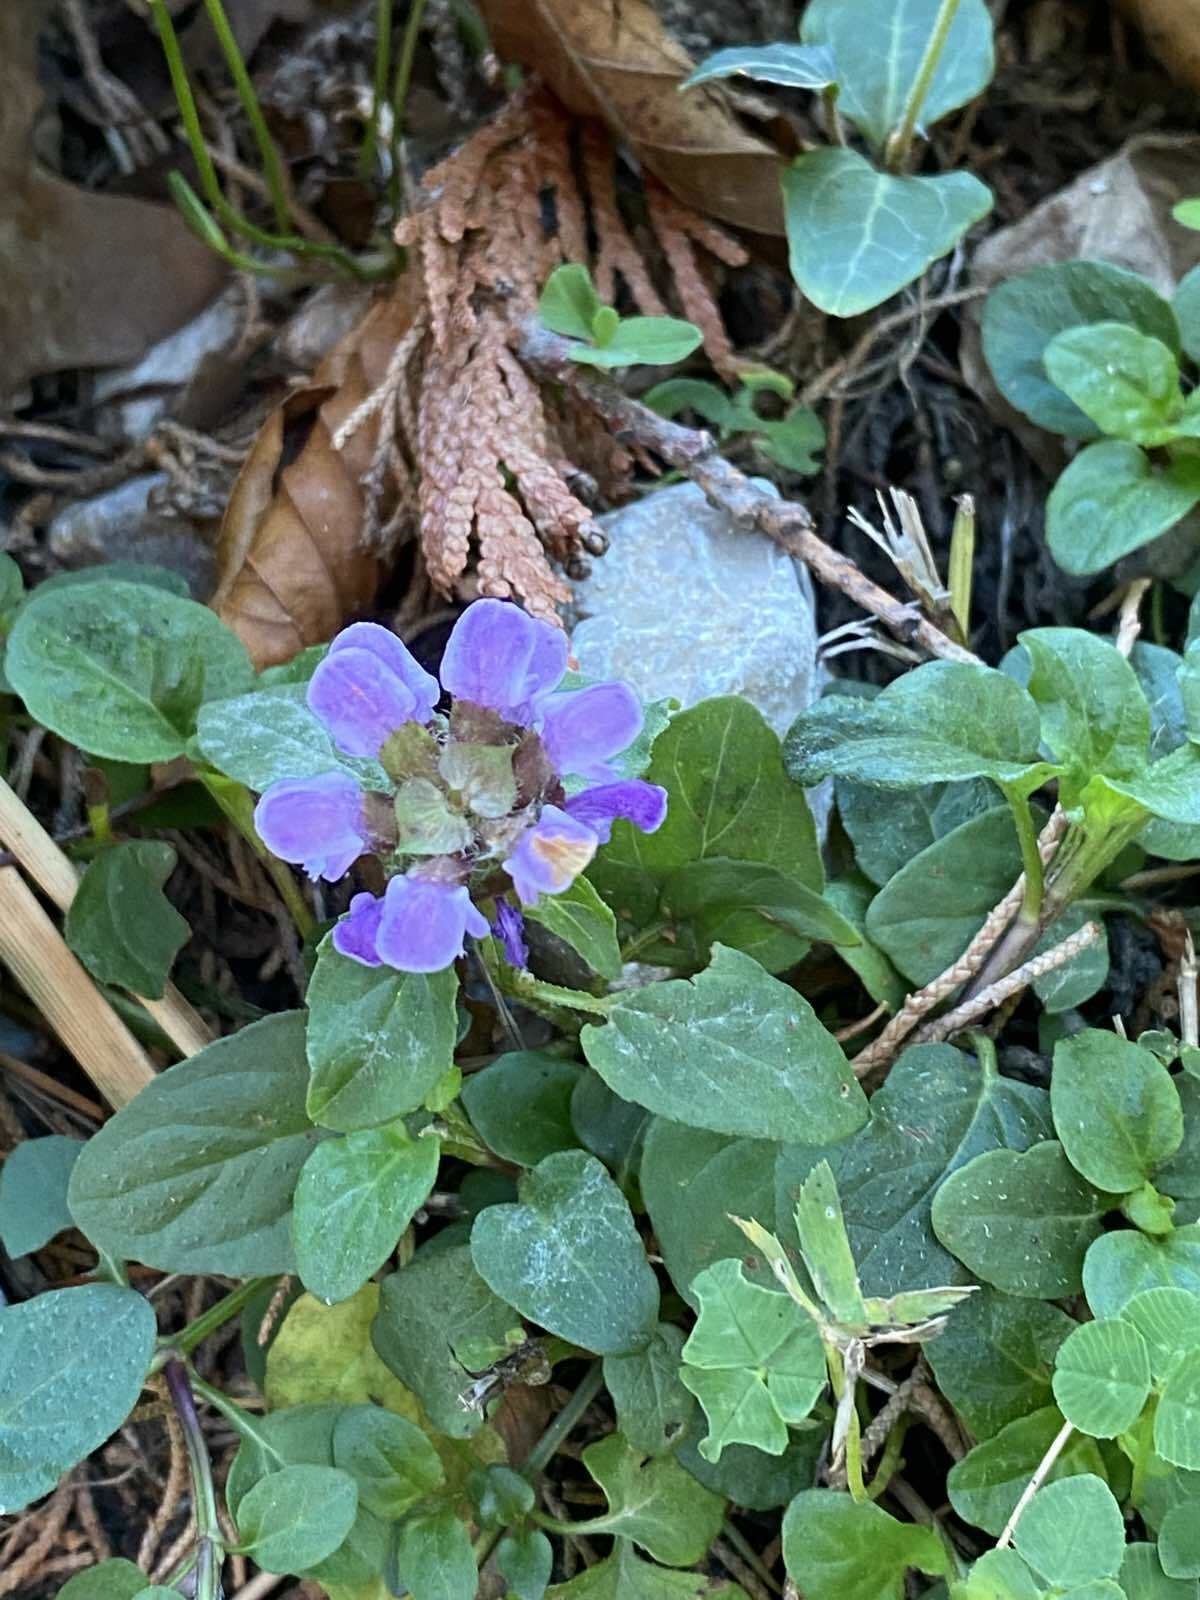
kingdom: Plantae
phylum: Tracheophyta
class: Magnoliopsida
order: Lamiales
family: Lamiaceae
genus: Prunella
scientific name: Prunella grandiflora
